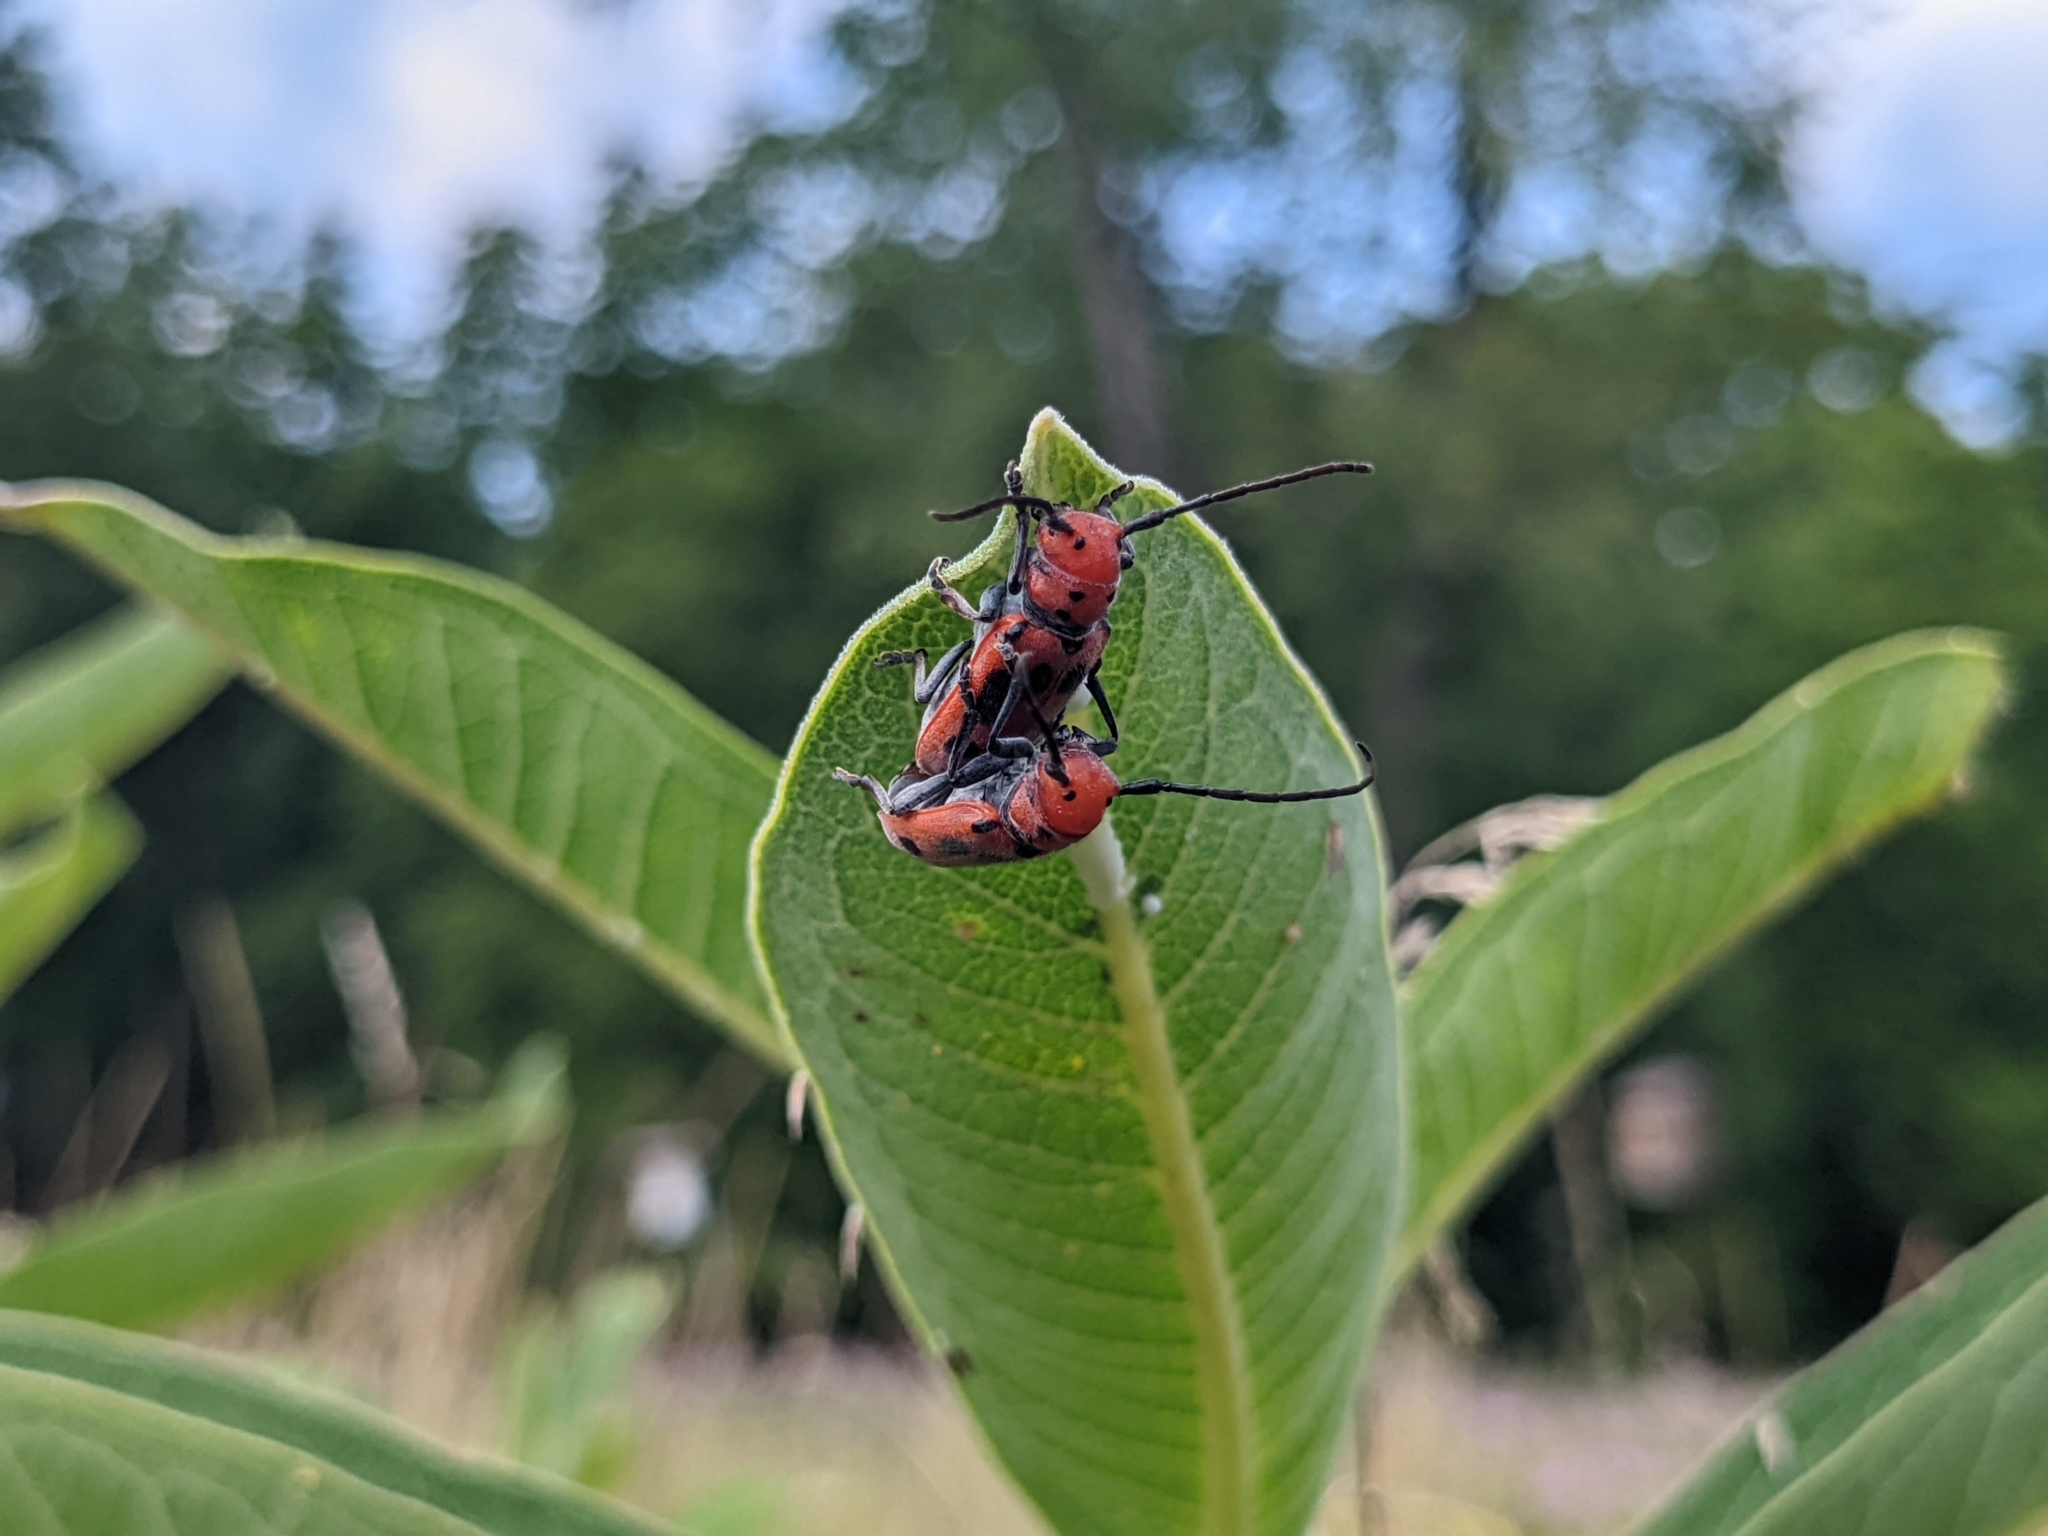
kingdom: Animalia
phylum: Arthropoda
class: Insecta
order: Coleoptera
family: Cerambycidae
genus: Tetraopes
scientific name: Tetraopes tetrophthalmus
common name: Red milkweed beetle
